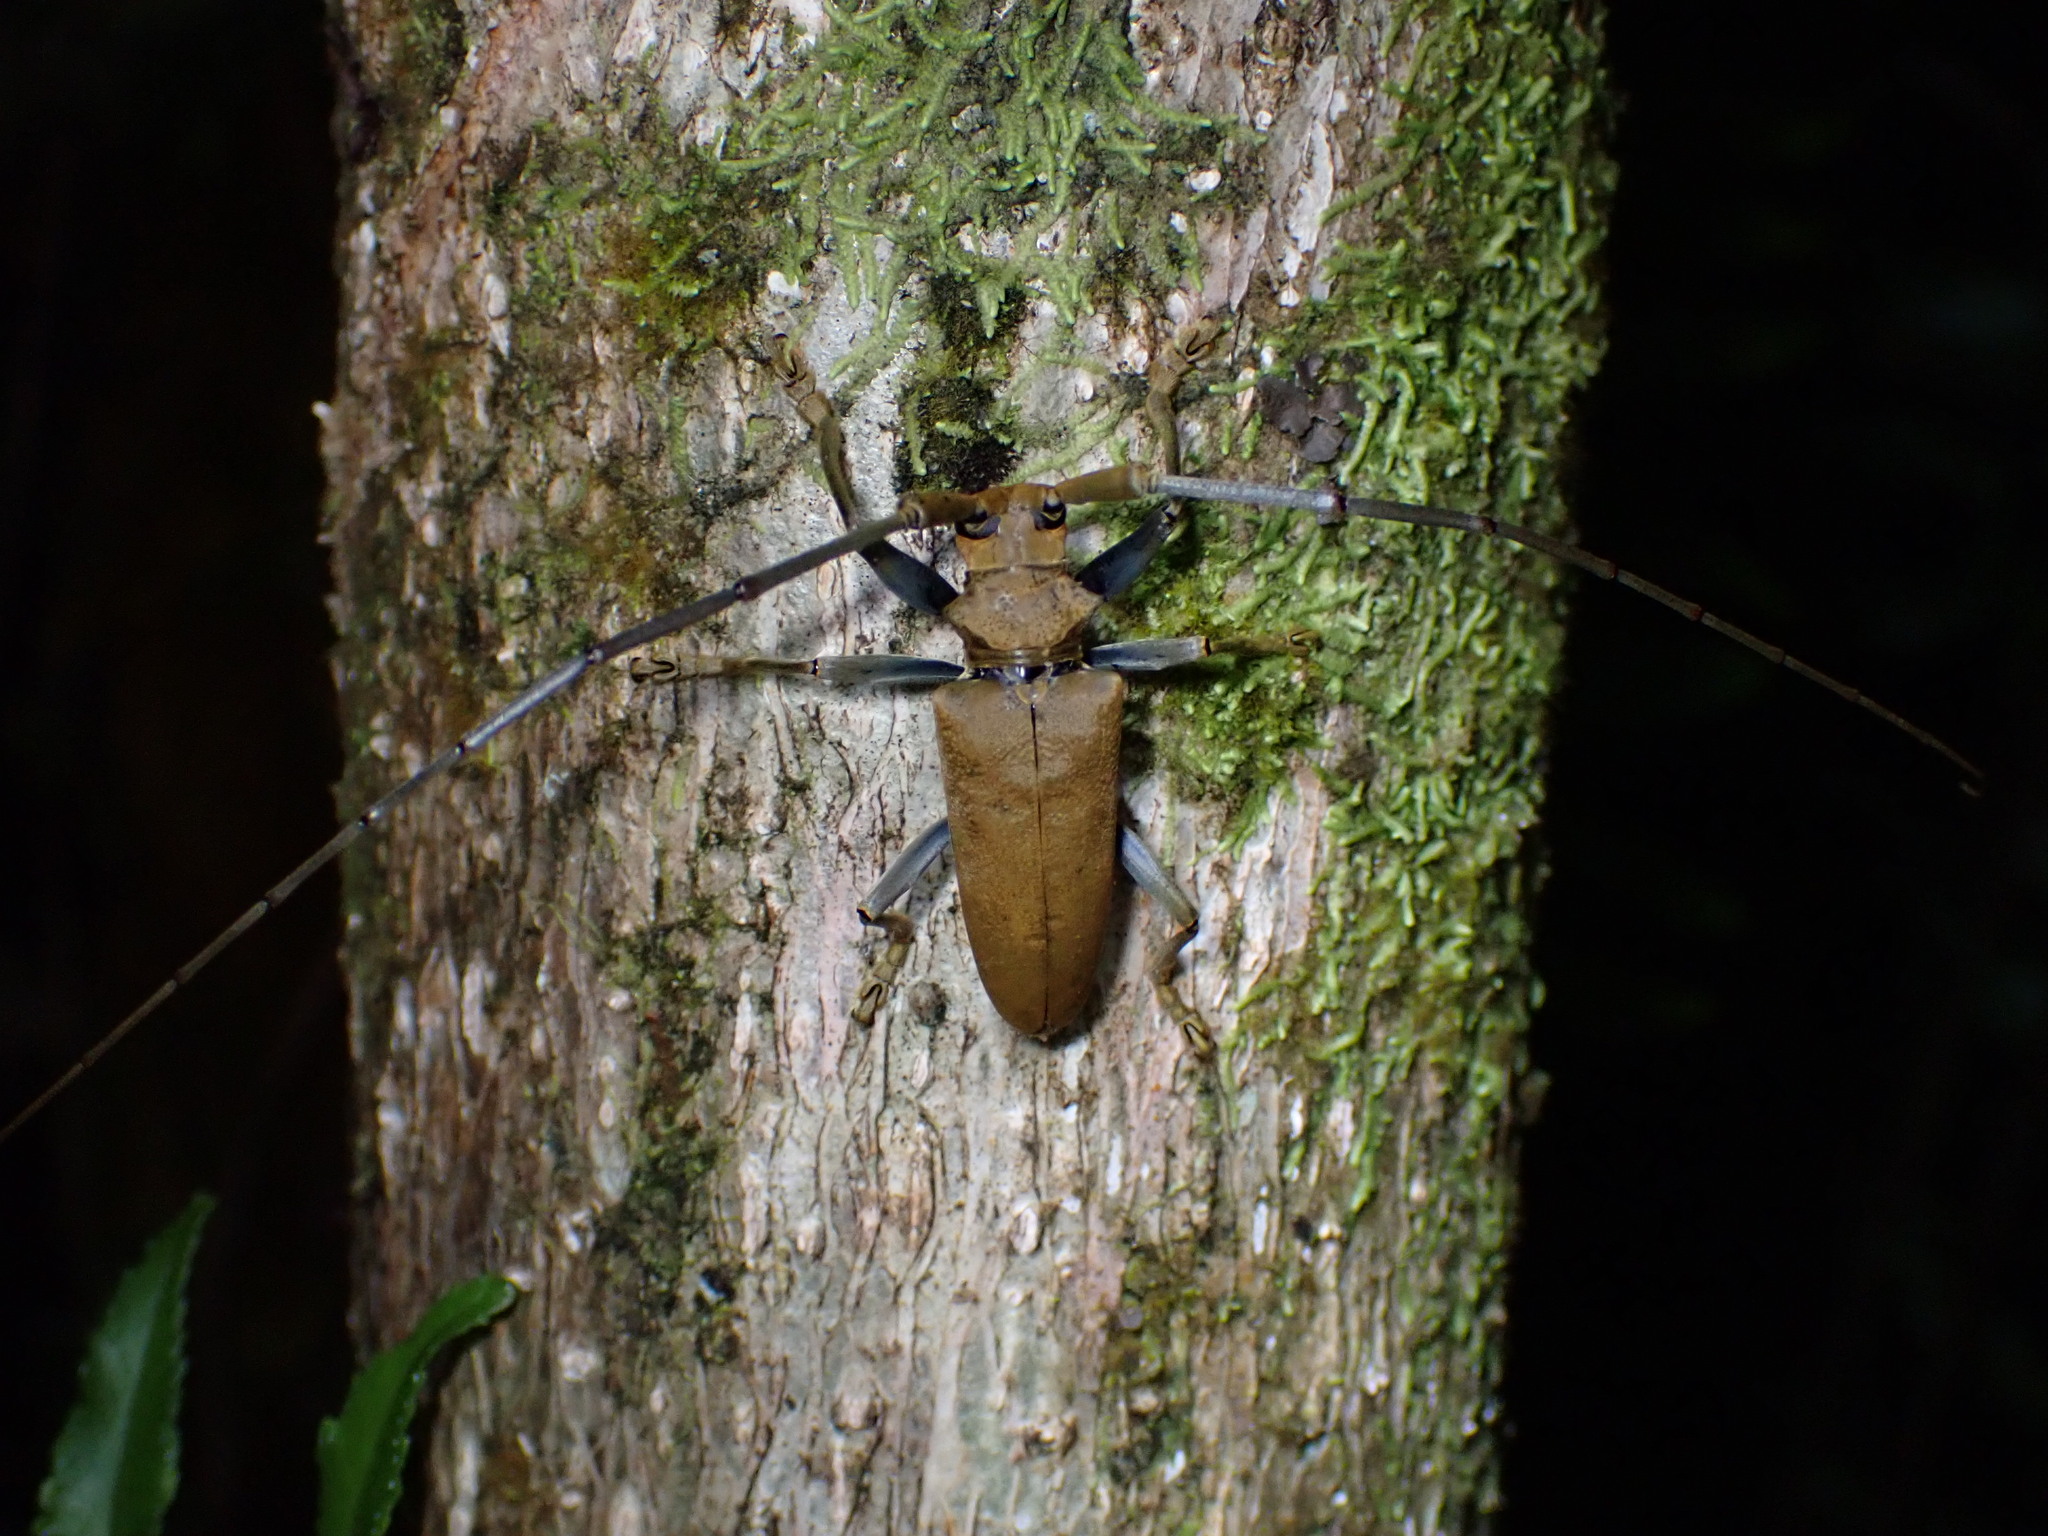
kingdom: Animalia
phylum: Arthropoda
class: Insecta
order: Coleoptera
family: Cerambycidae
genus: Acalolepta
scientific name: Acalolepta aesthetica
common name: Longhorned beetle
